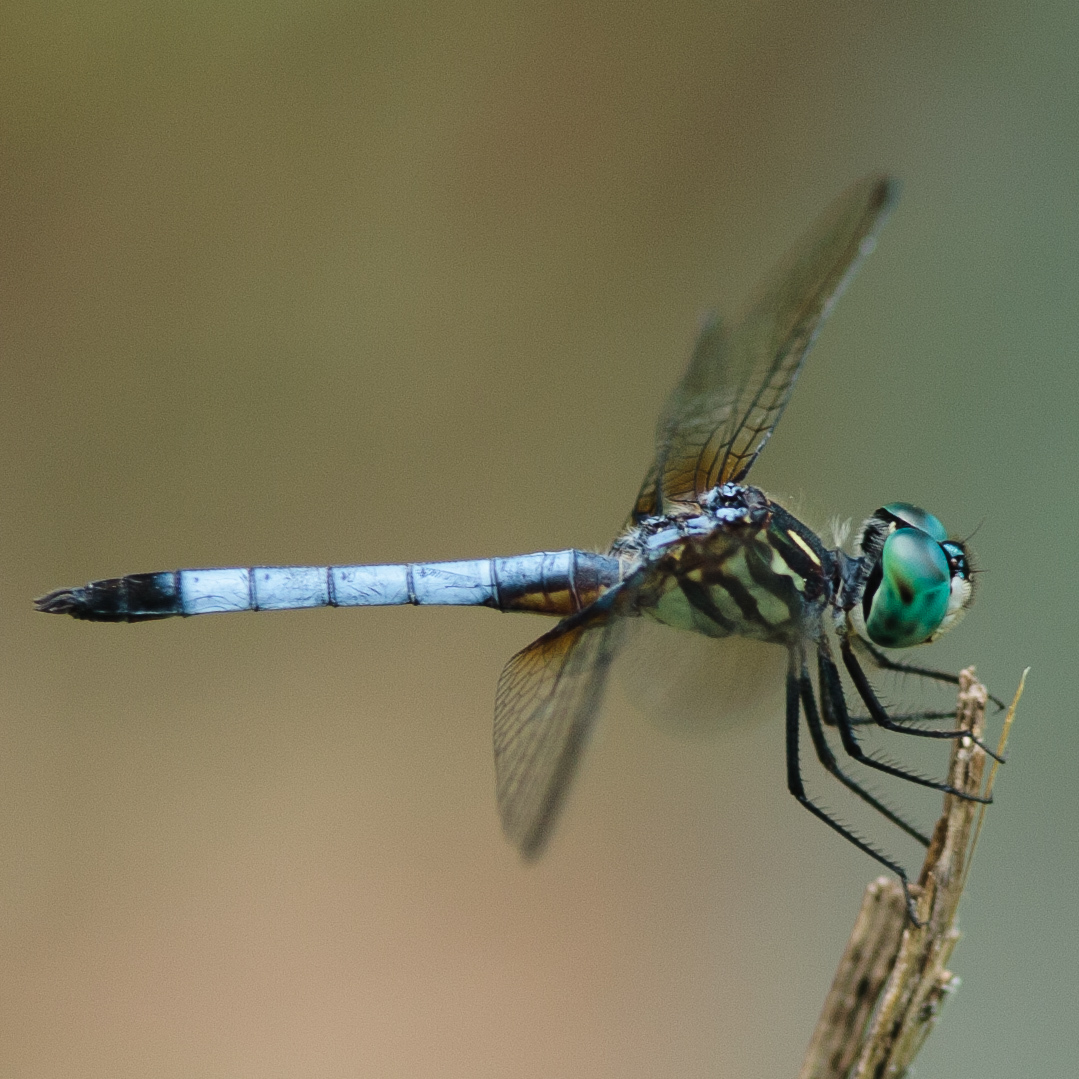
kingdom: Animalia
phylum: Arthropoda
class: Insecta
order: Odonata
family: Libellulidae
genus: Pachydiplax
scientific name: Pachydiplax longipennis
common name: Blue dasher
